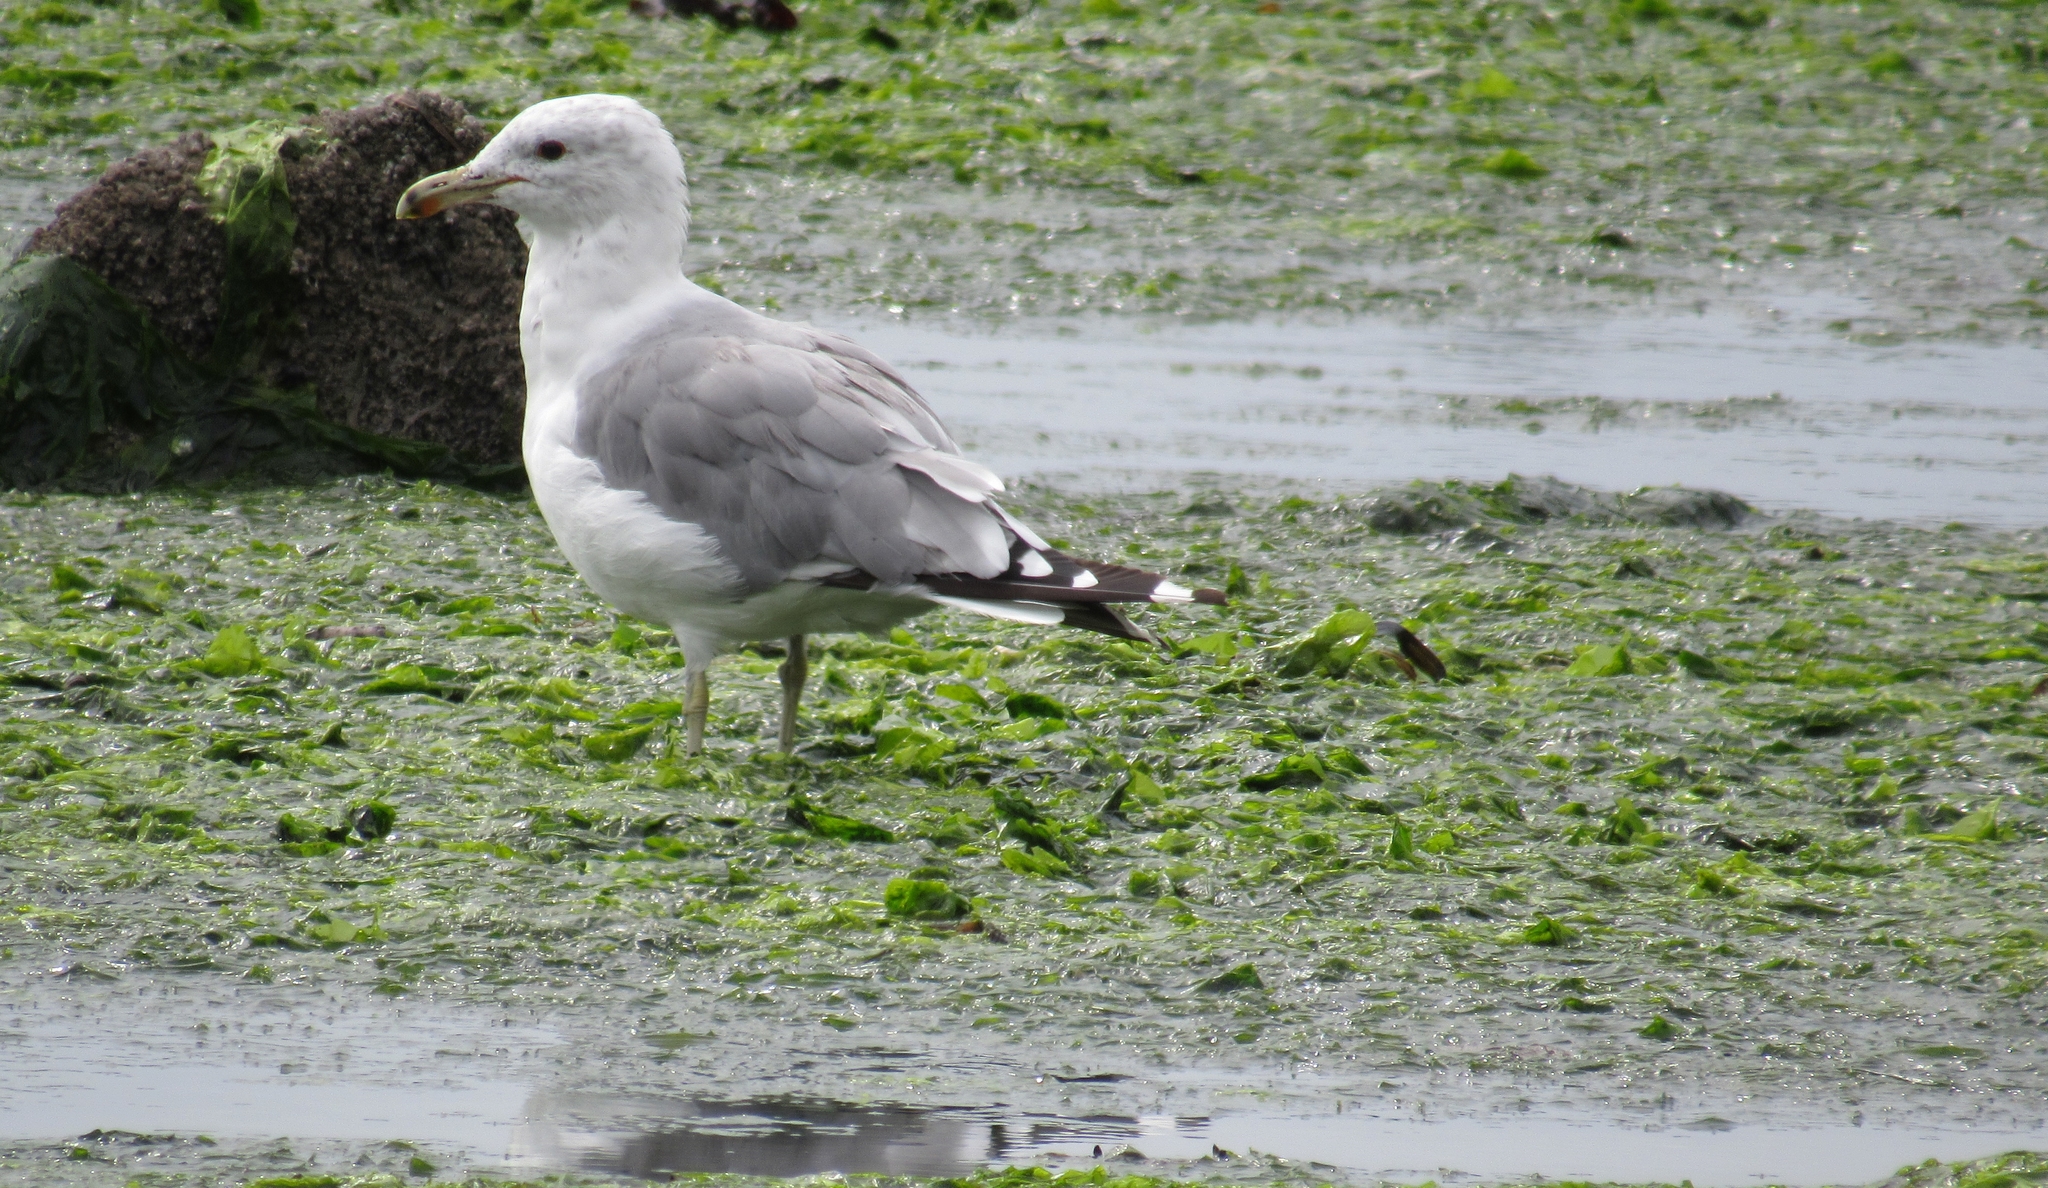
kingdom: Animalia
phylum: Chordata
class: Aves
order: Charadriiformes
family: Laridae
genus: Larus
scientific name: Larus californicus
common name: California gull
